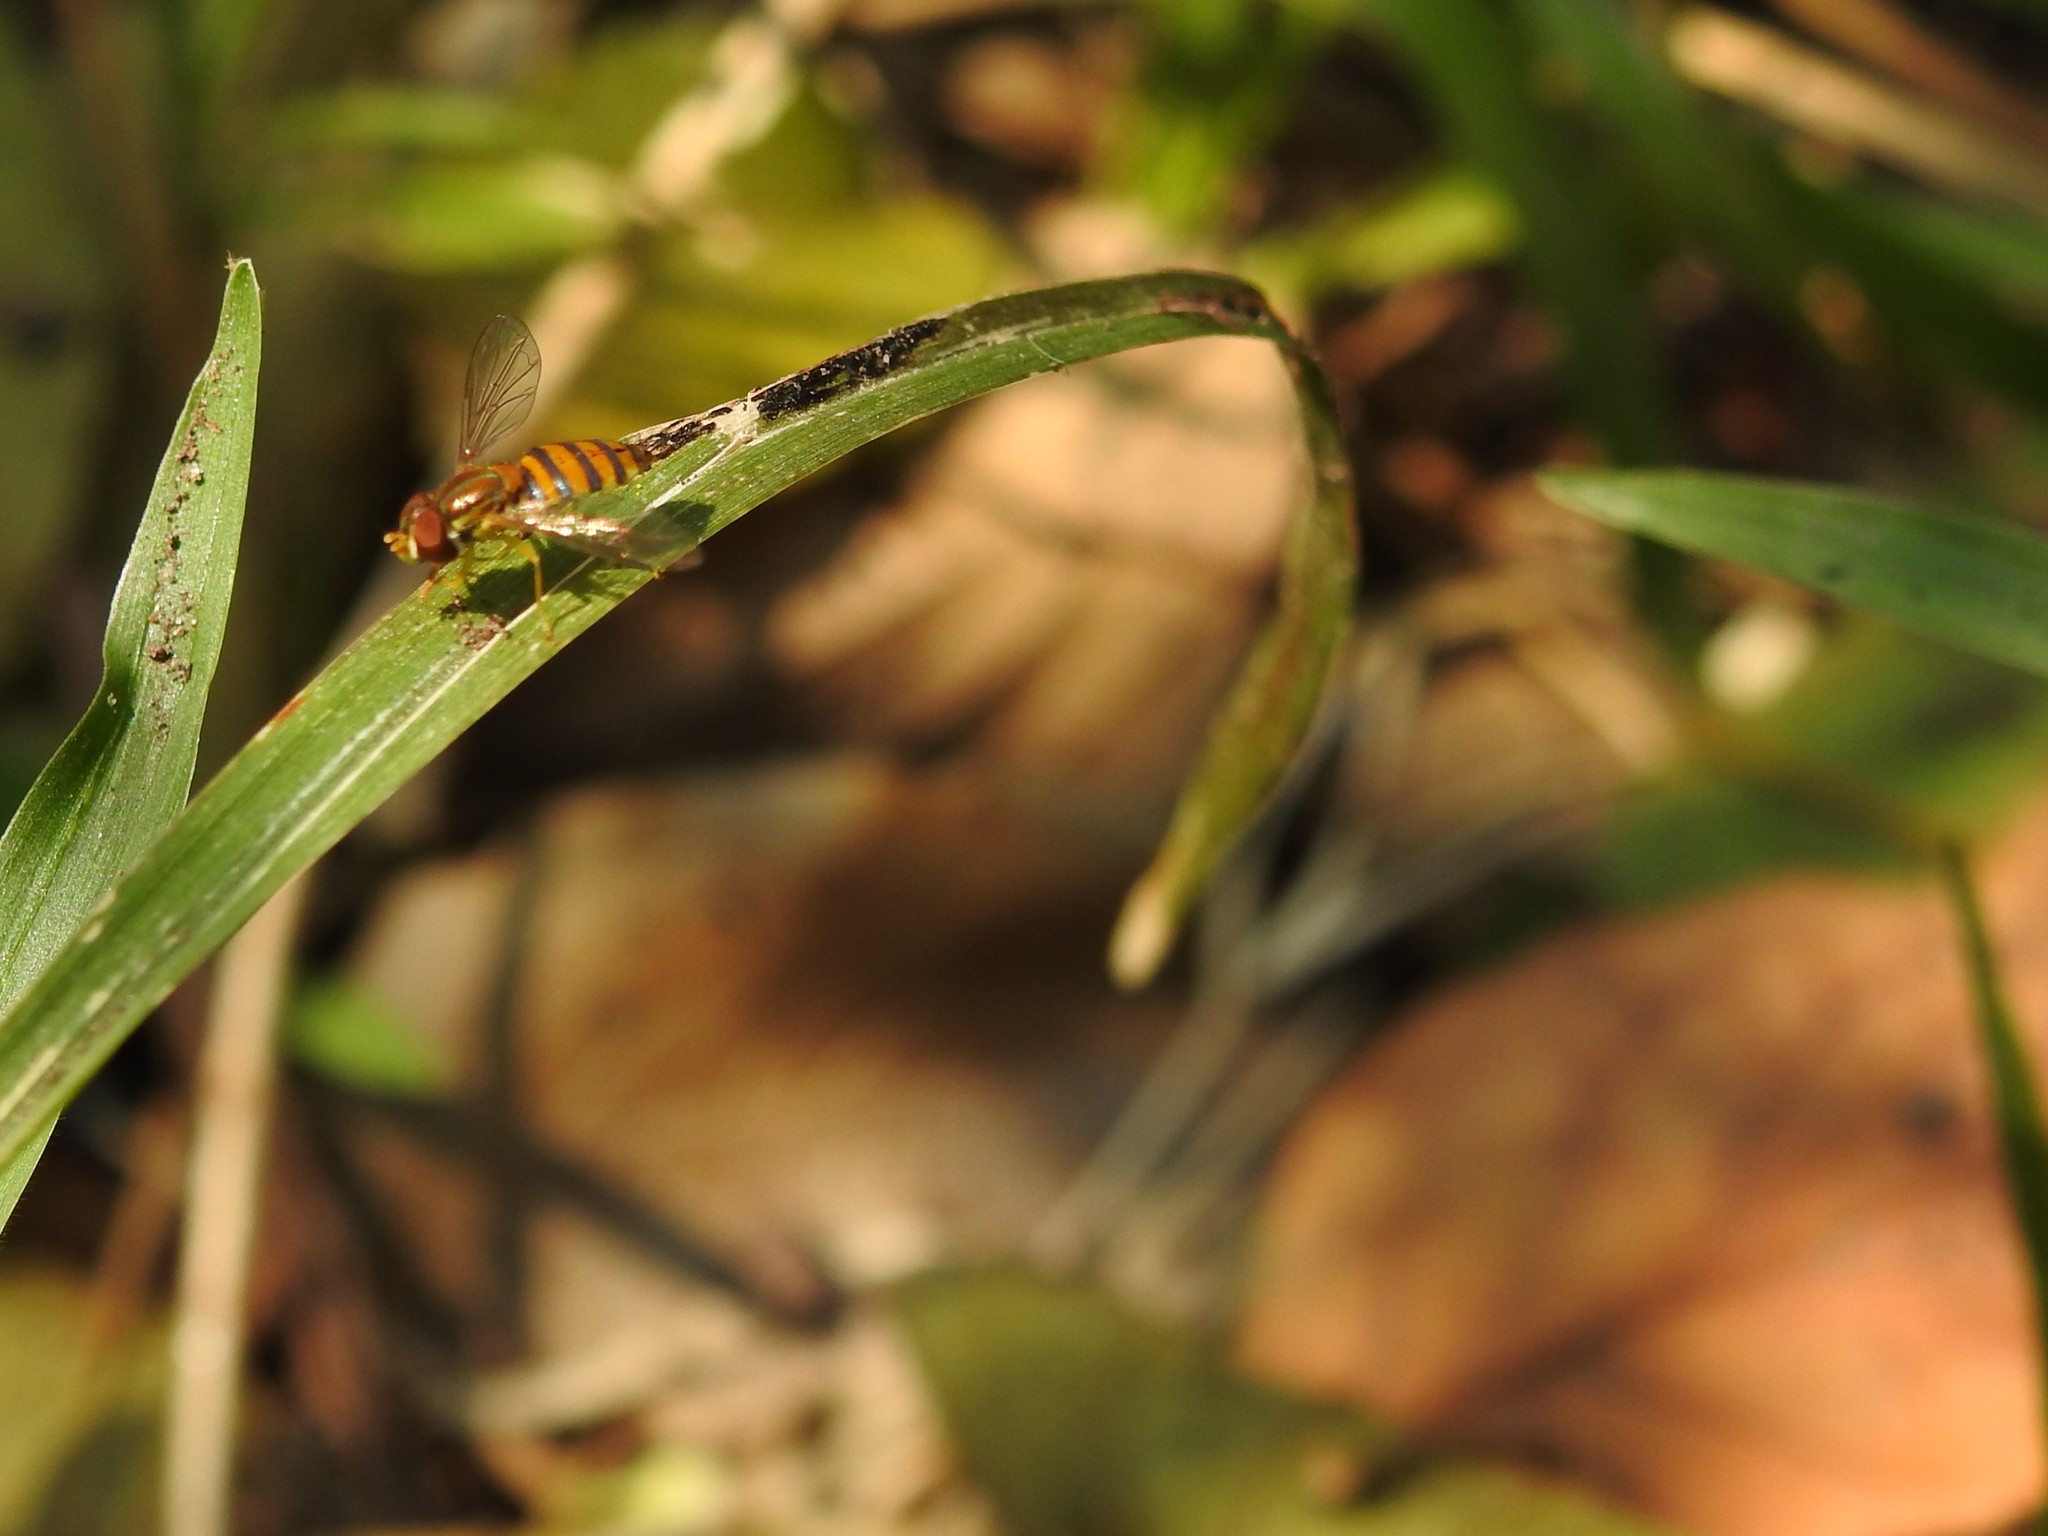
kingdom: Animalia
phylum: Arthropoda
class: Insecta
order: Diptera
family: Syrphidae
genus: Toxomerus
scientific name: Toxomerus
